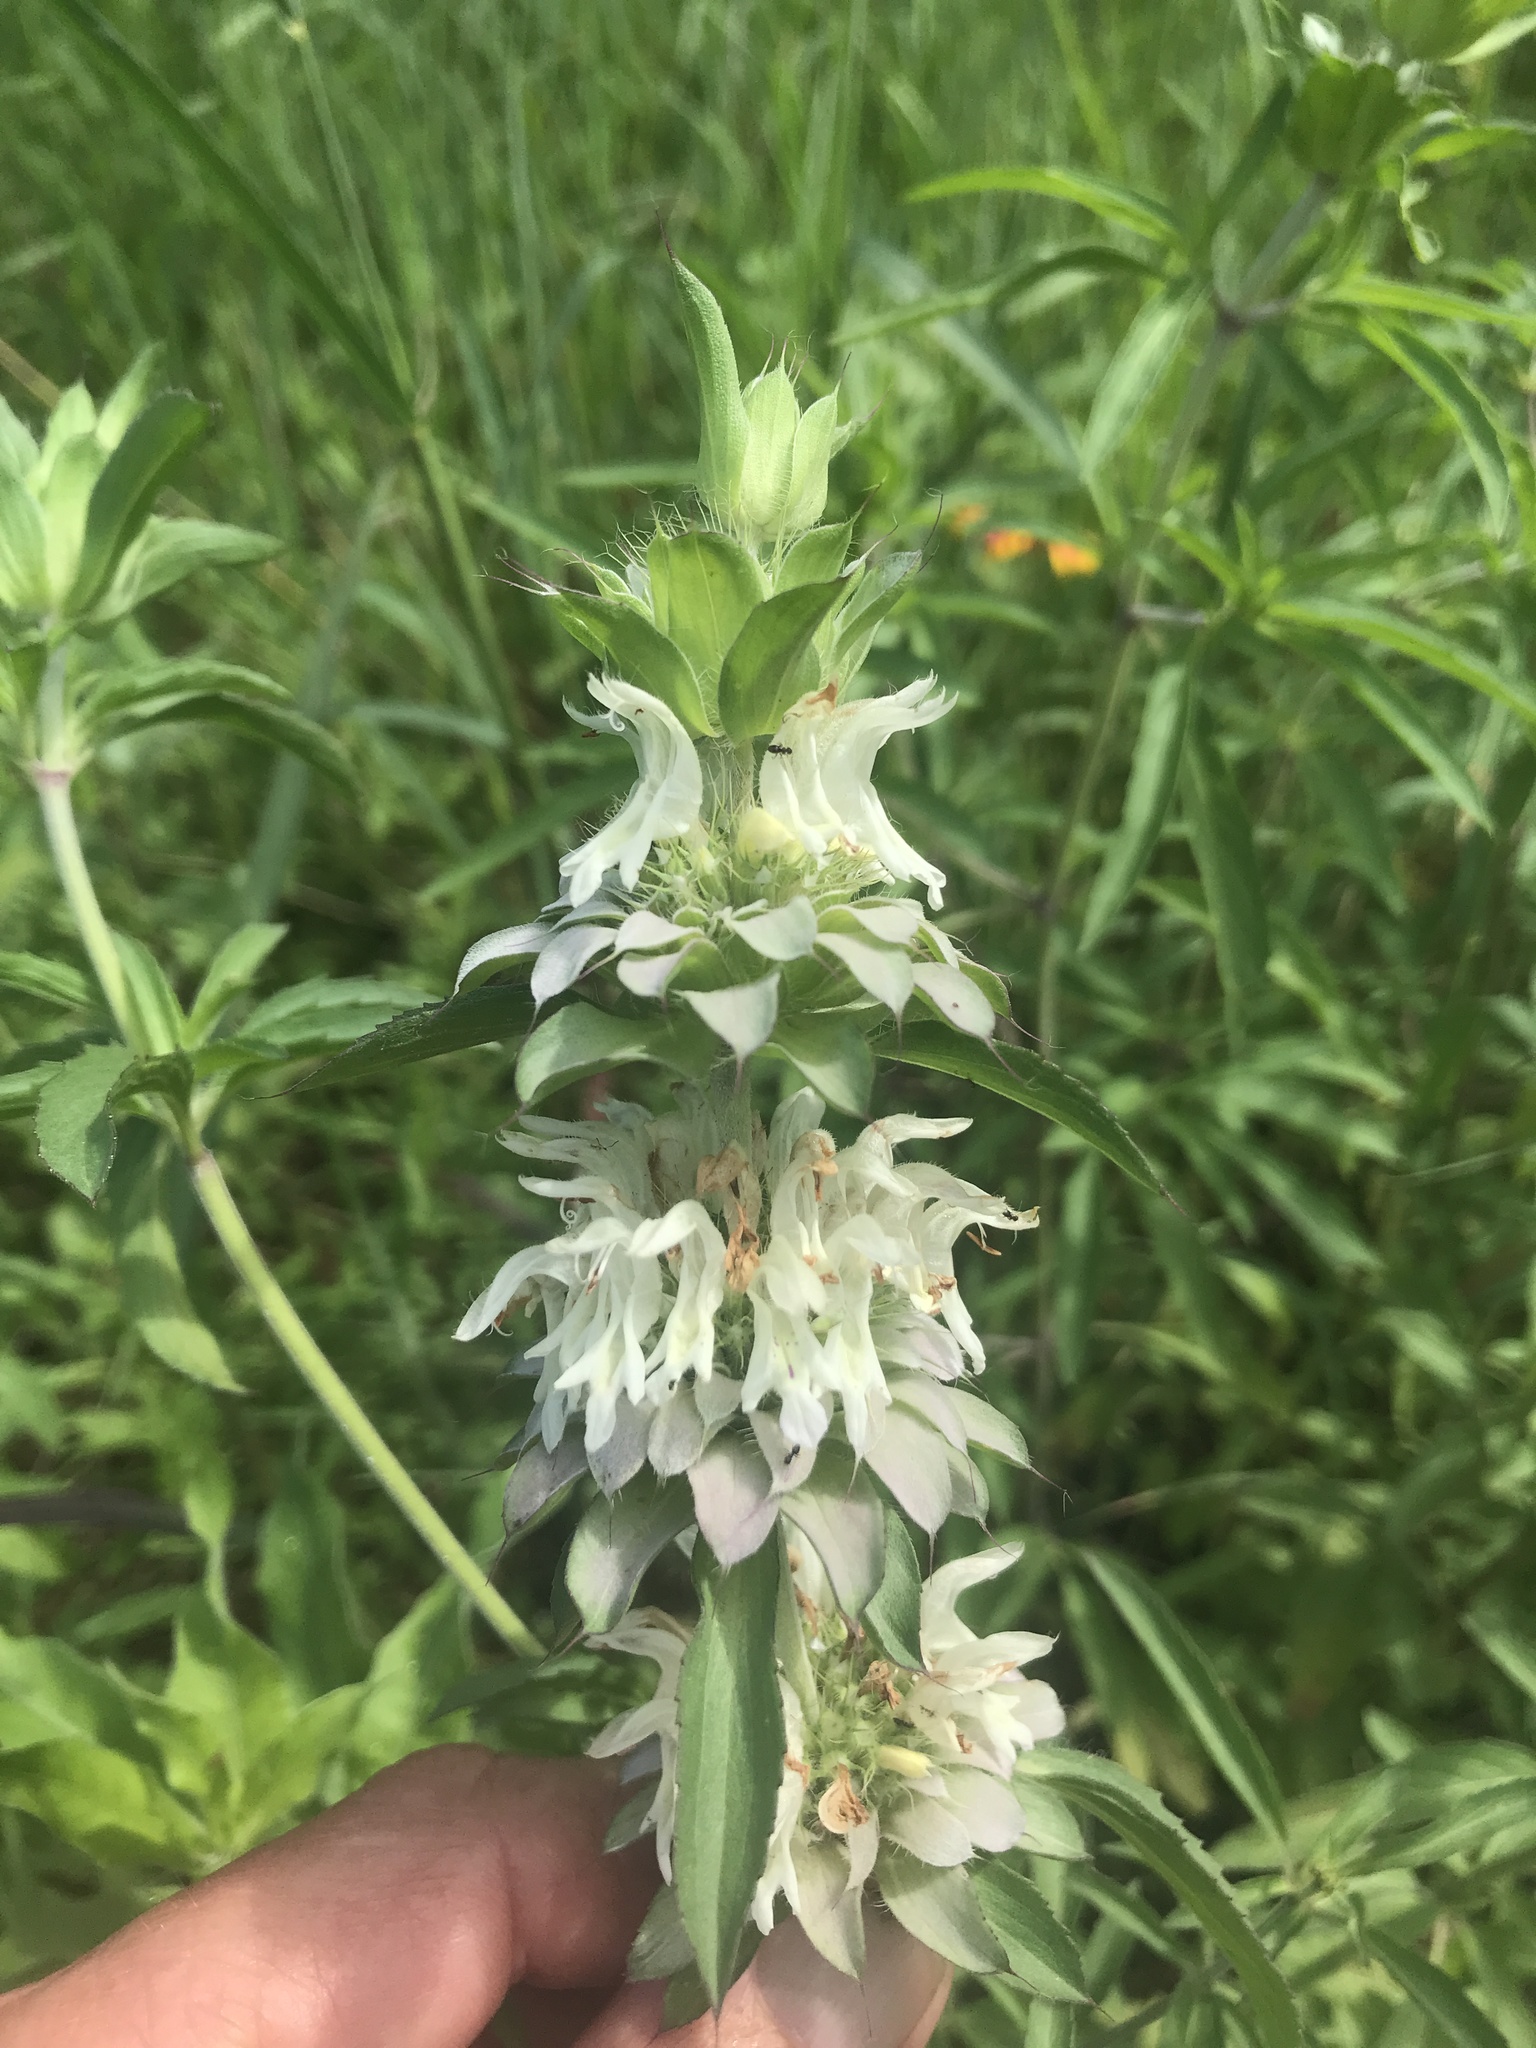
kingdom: Plantae
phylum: Tracheophyta
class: Magnoliopsida
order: Lamiales
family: Lamiaceae
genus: Monarda
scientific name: Monarda citriodora
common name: Lemon beebalm
